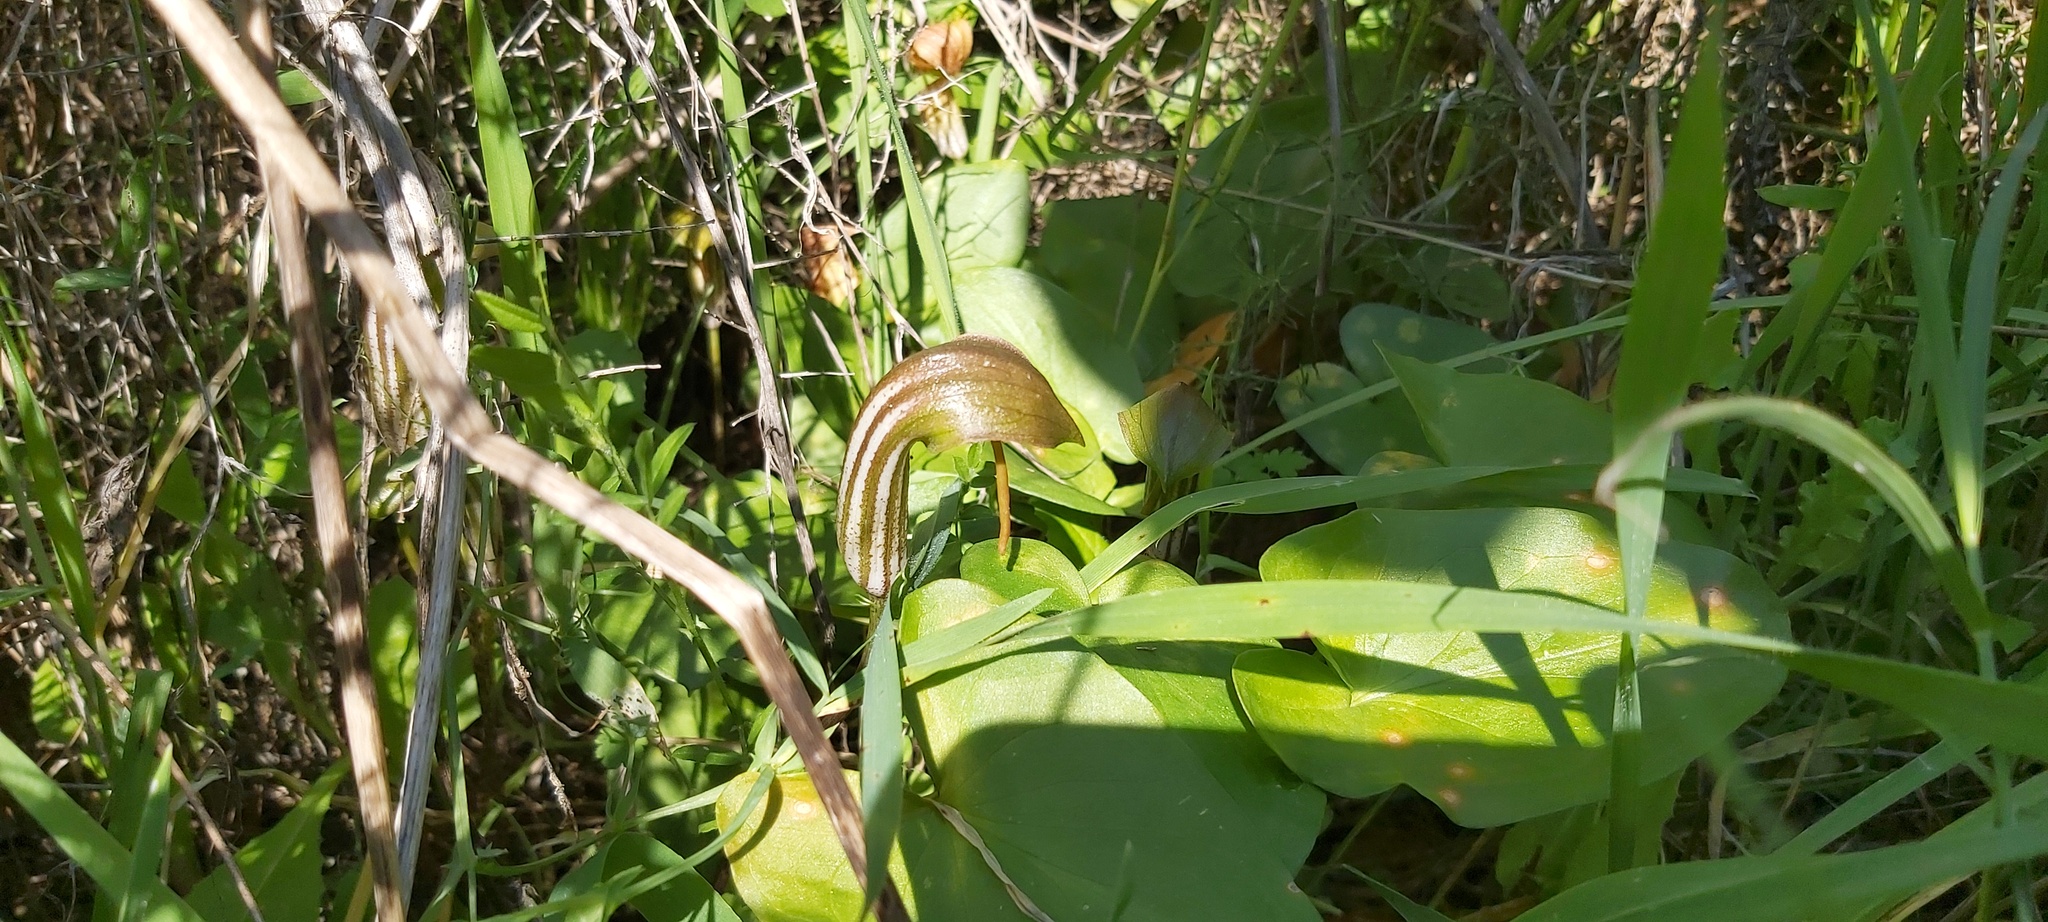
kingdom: Plantae
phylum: Tracheophyta
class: Liliopsida
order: Alismatales
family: Araceae
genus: Arisarum
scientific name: Arisarum vulgare
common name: Common arisarum
